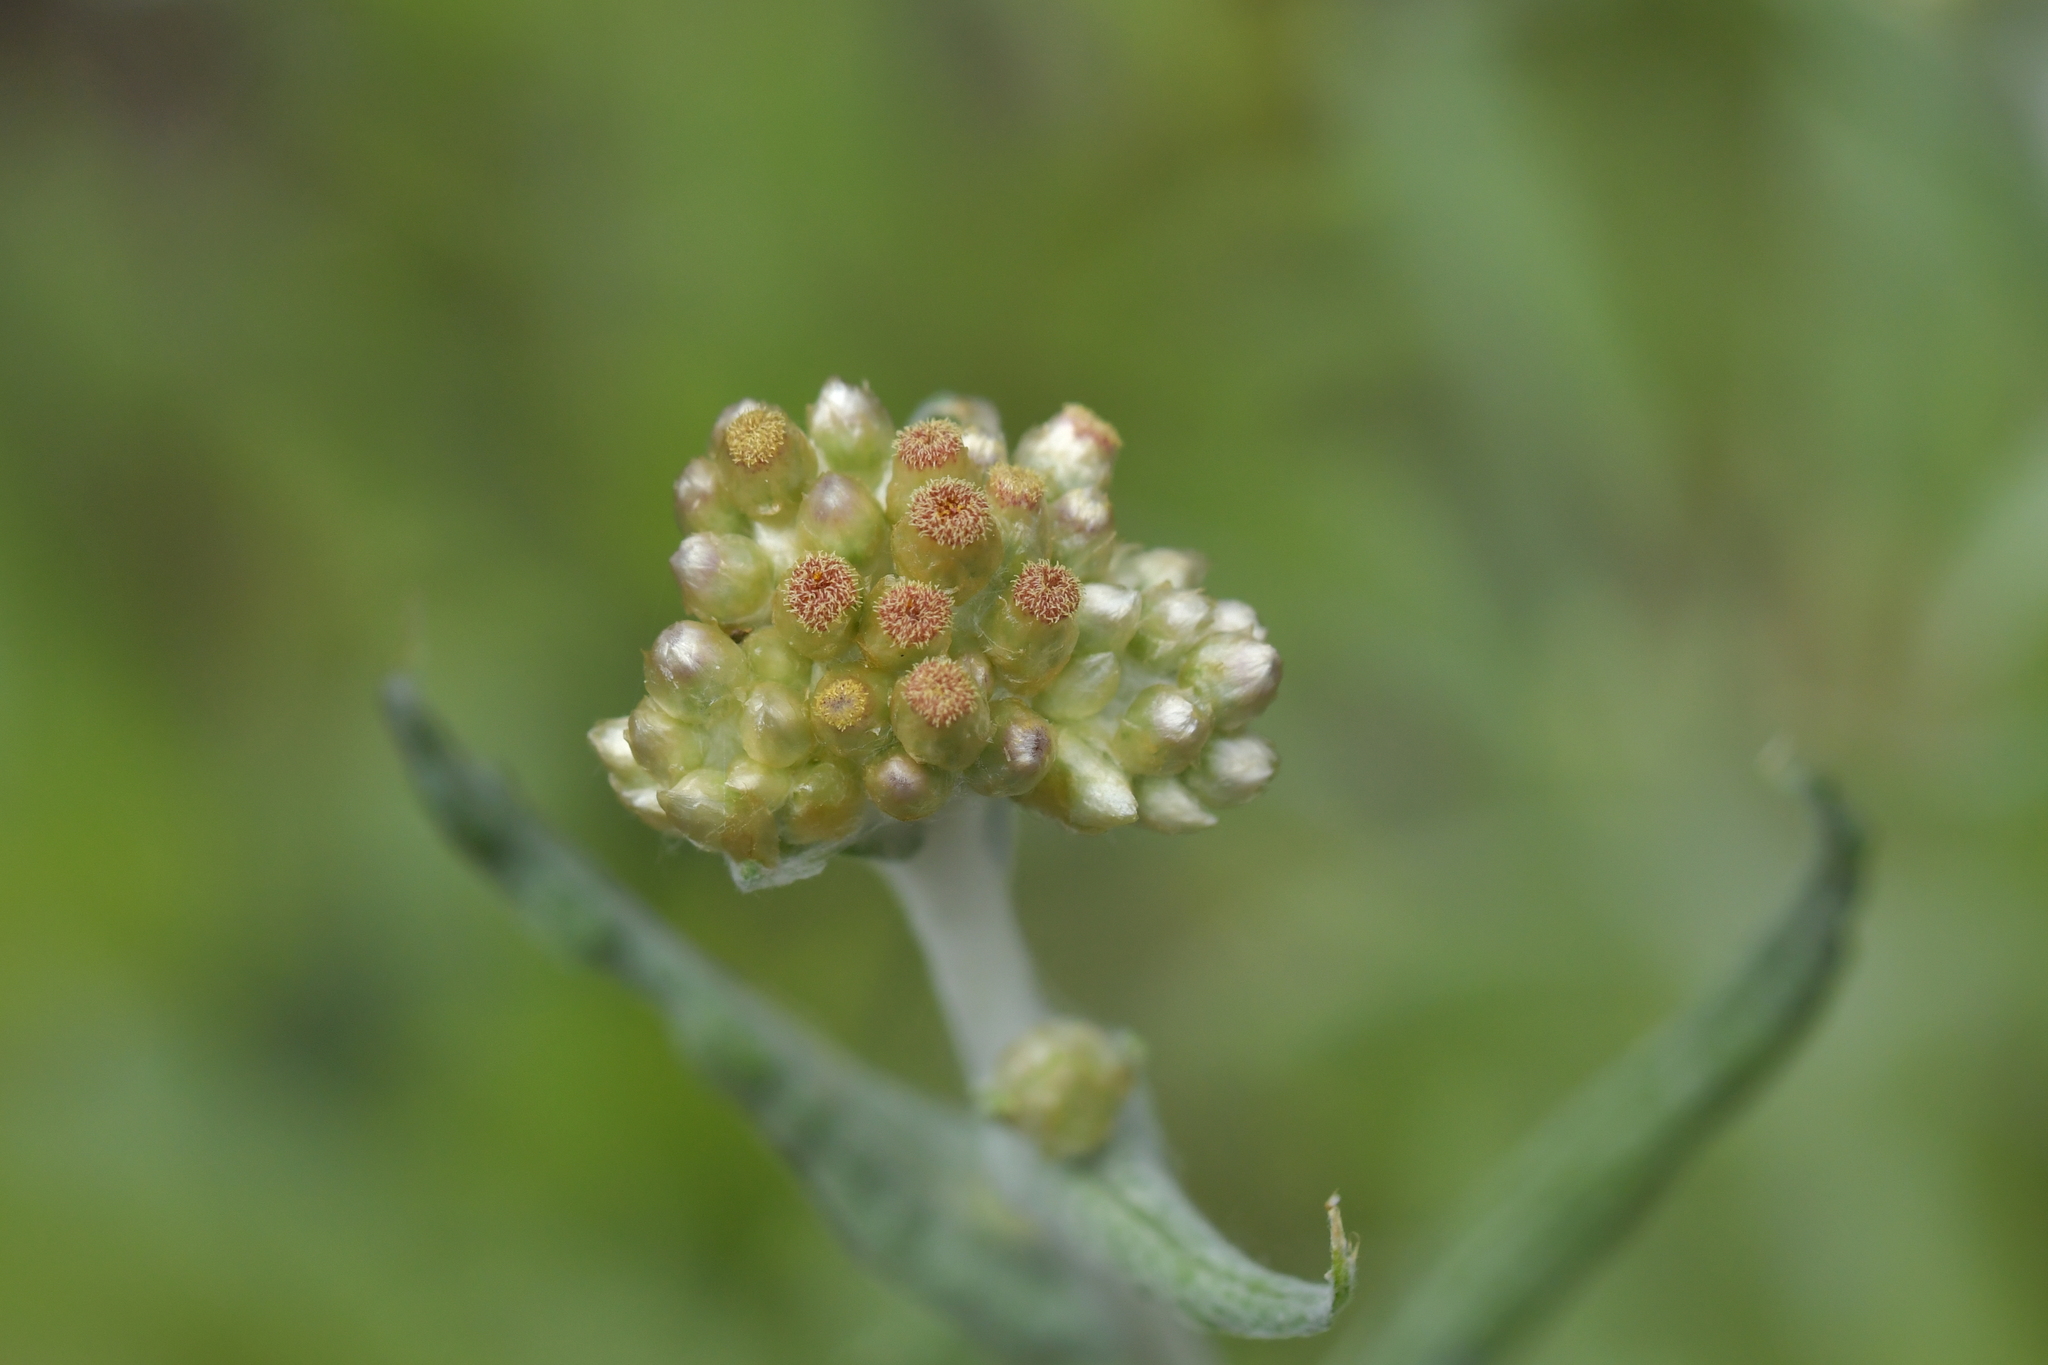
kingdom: Plantae
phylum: Tracheophyta
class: Magnoliopsida
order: Asterales
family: Asteraceae
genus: Helichrysum
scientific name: Helichrysum luteoalbum
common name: Daisy
